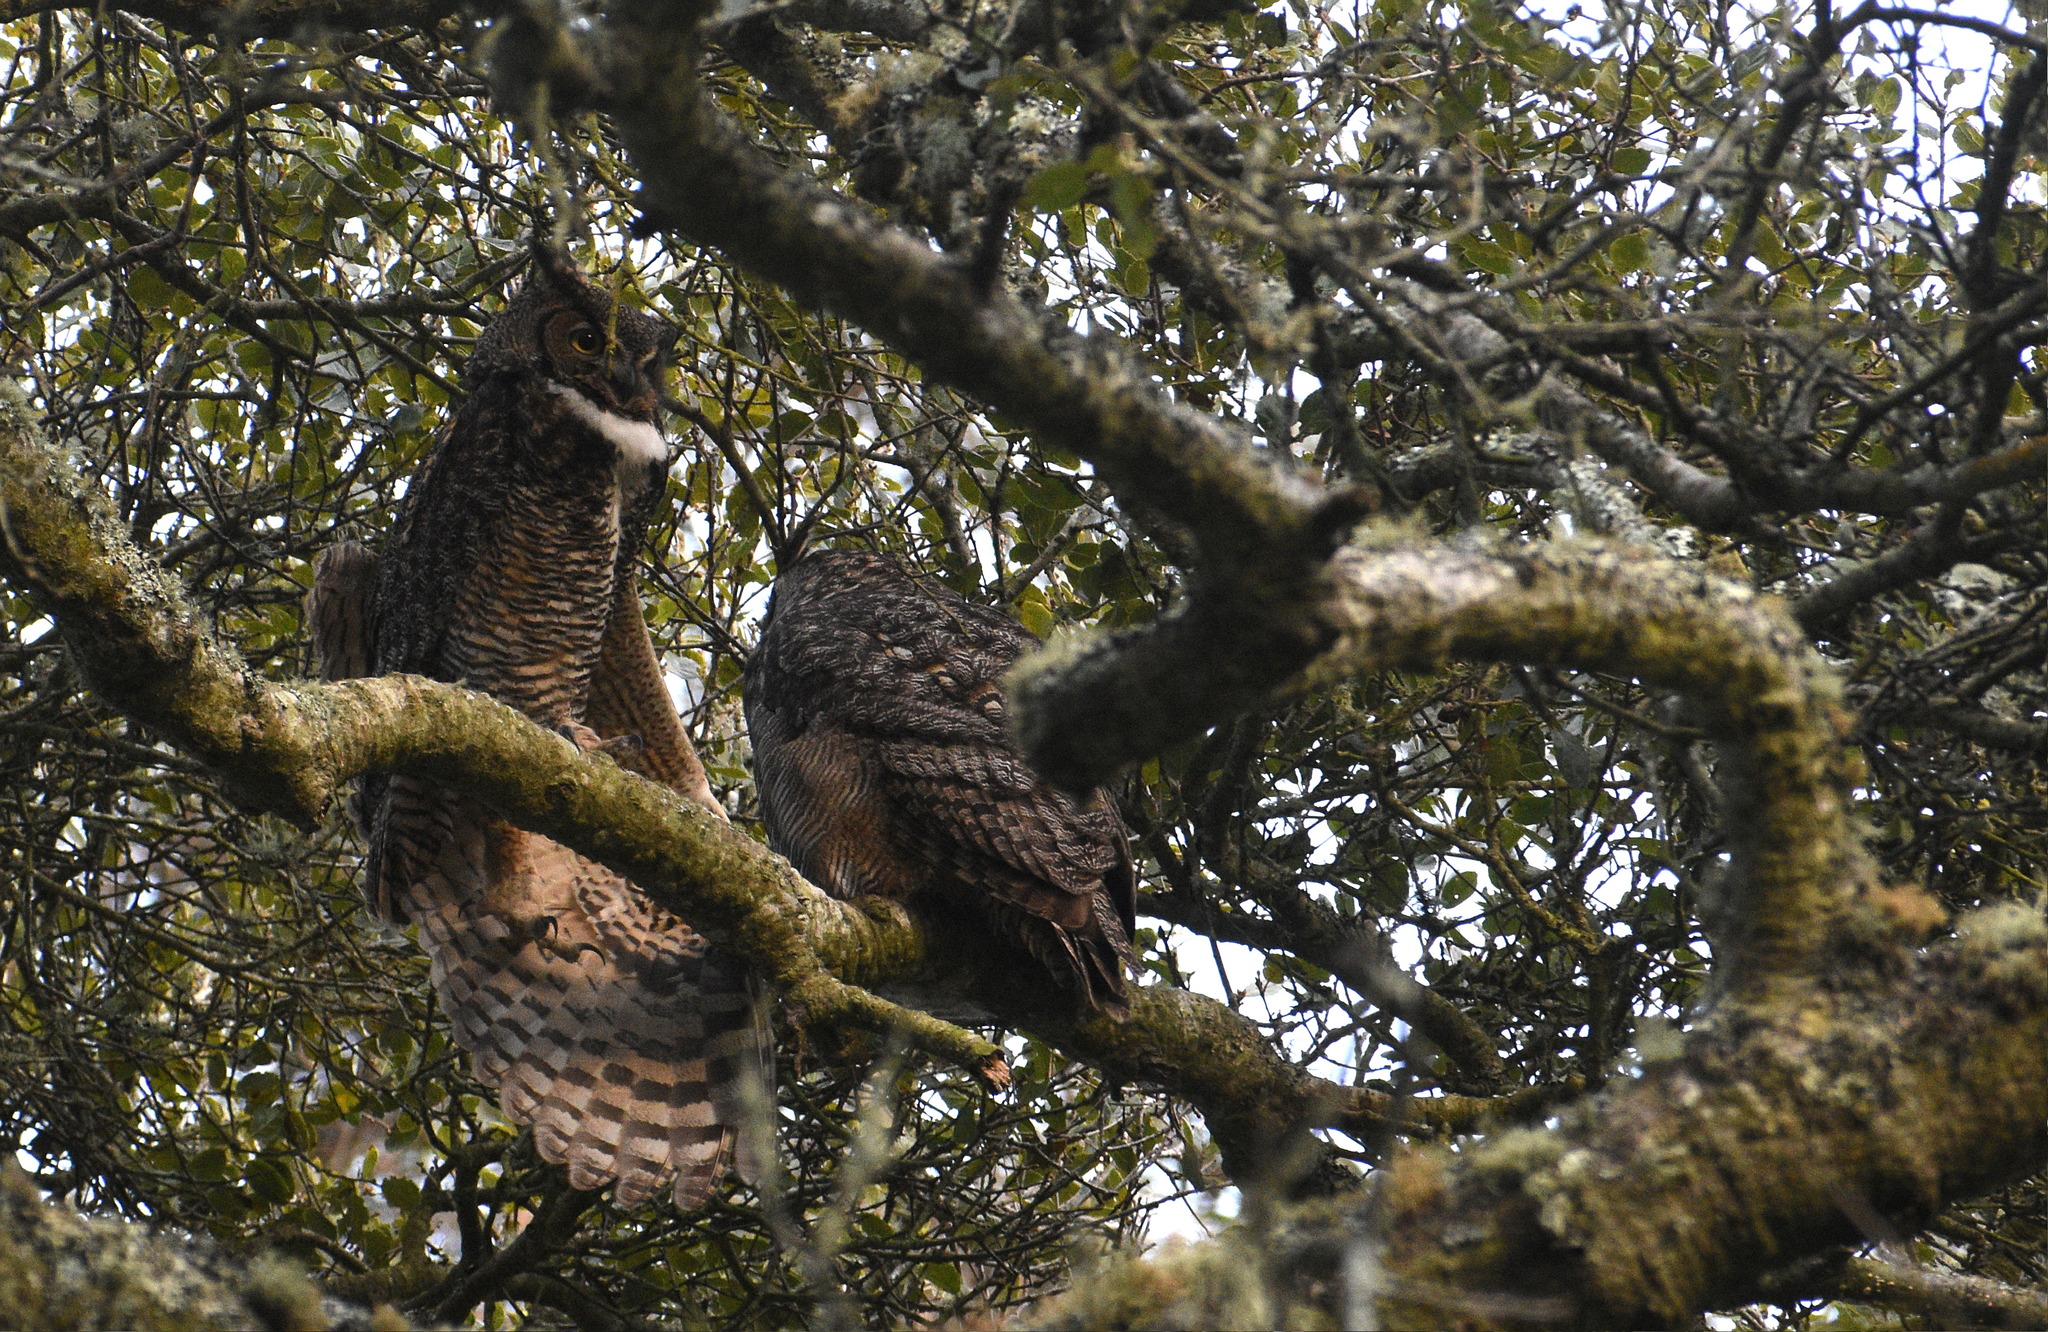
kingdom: Animalia
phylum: Chordata
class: Aves
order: Strigiformes
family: Strigidae
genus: Bubo
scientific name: Bubo virginianus
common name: Great horned owl
